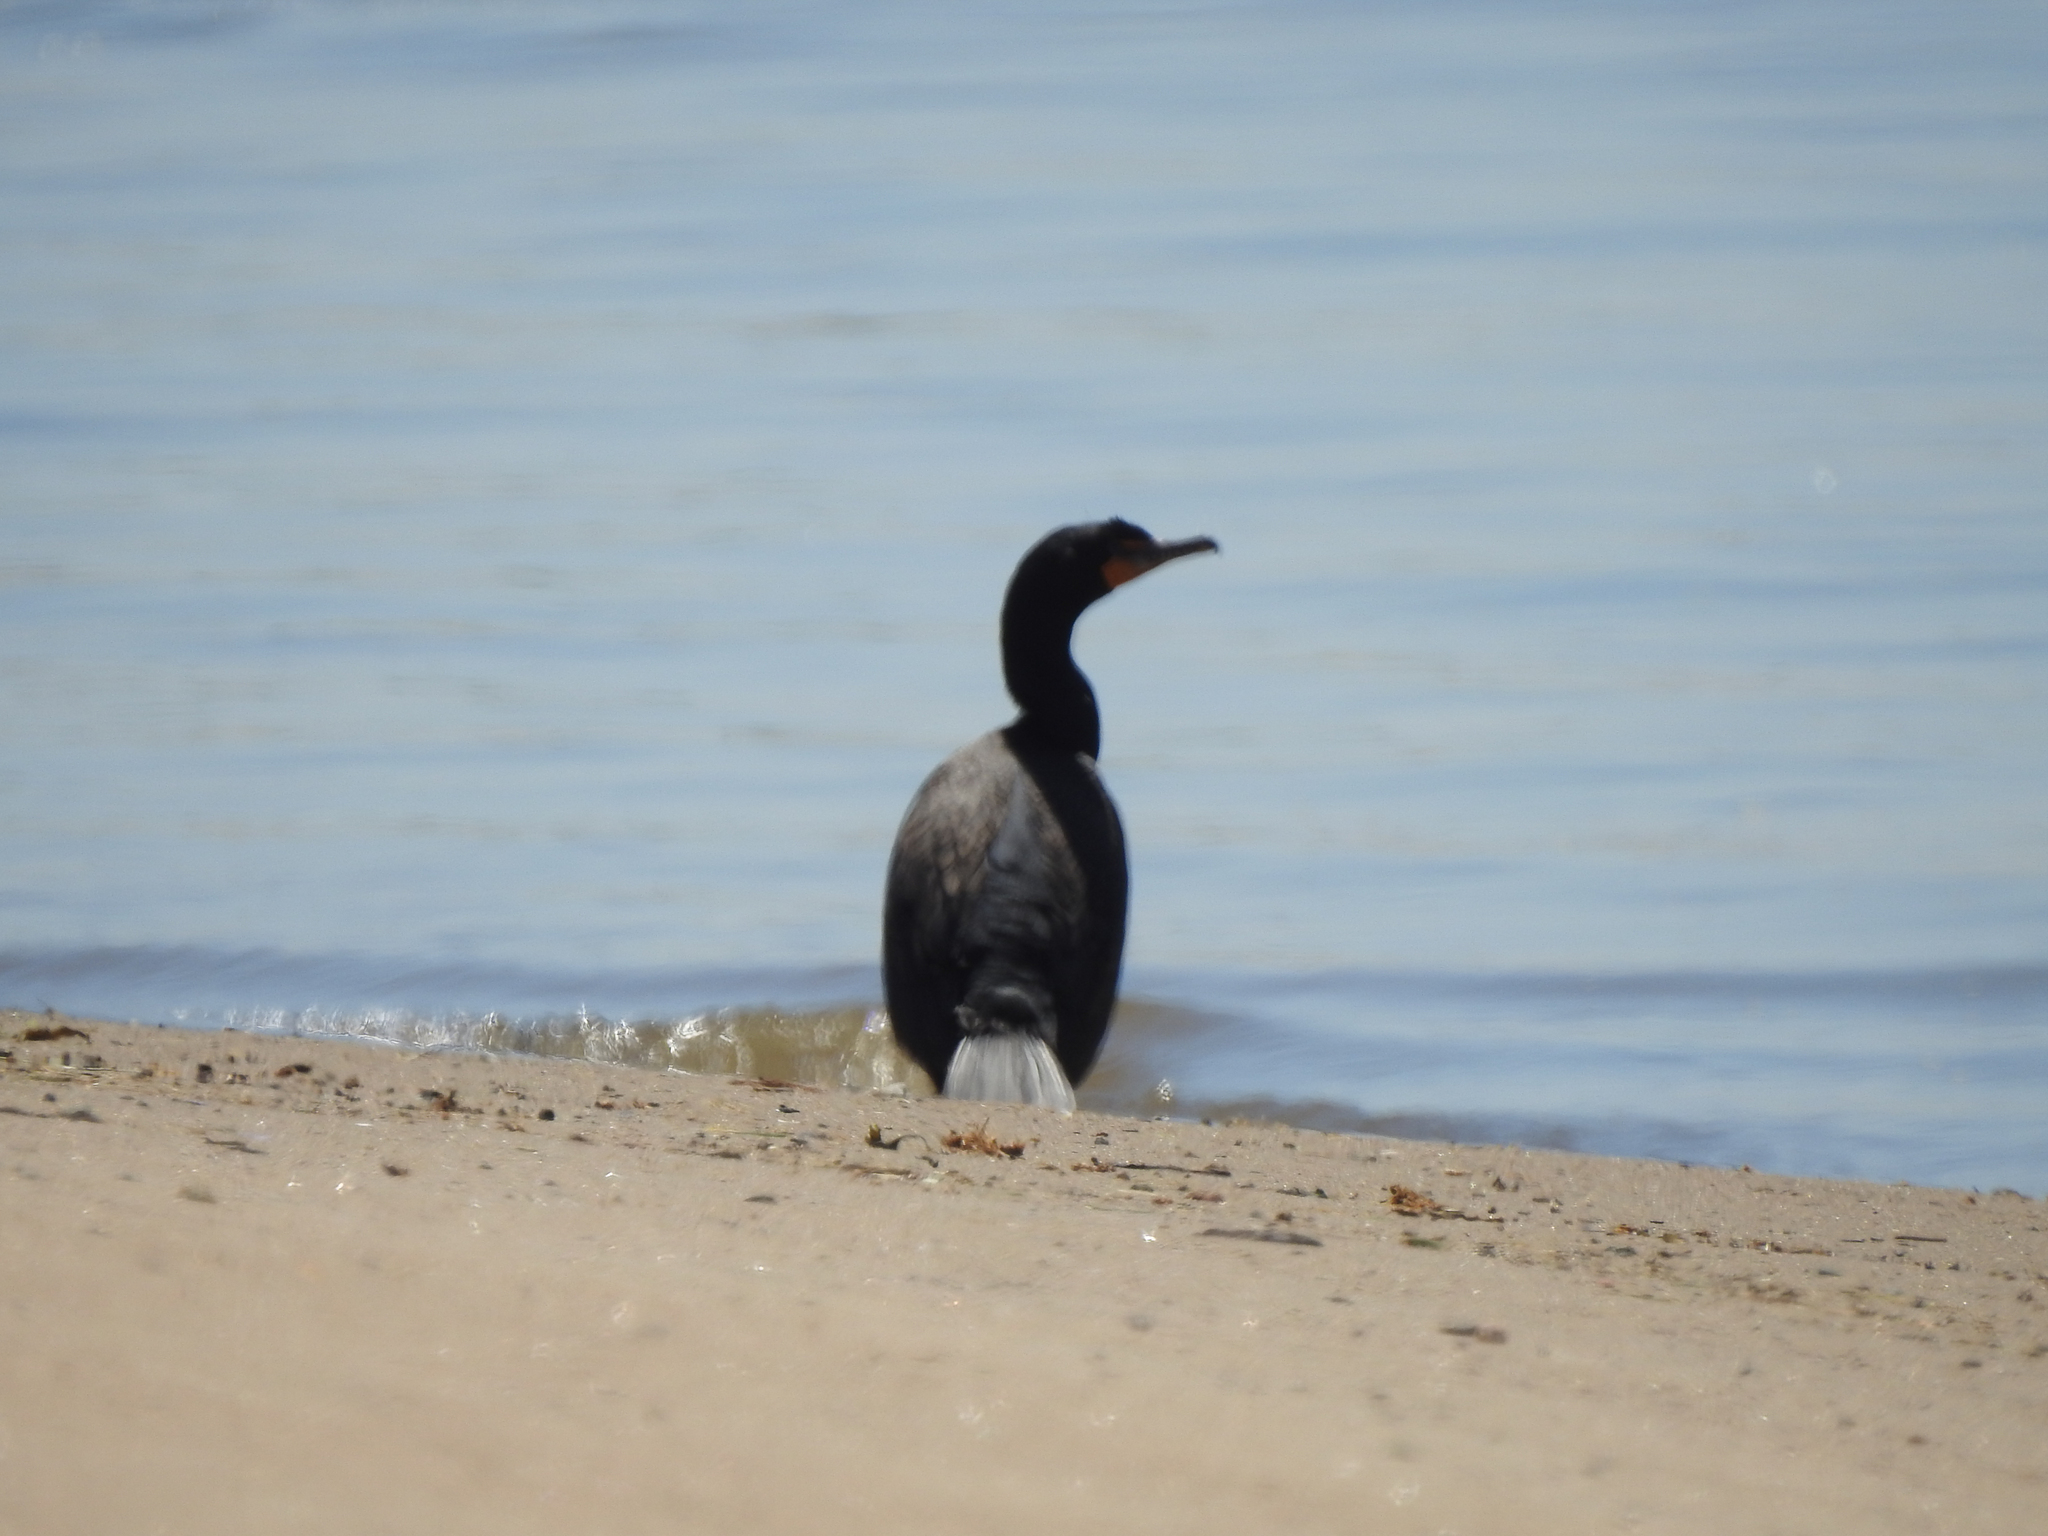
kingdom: Animalia
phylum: Chordata
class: Aves
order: Suliformes
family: Phalacrocoracidae
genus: Phalacrocorax
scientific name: Phalacrocorax auritus
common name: Double-crested cormorant
